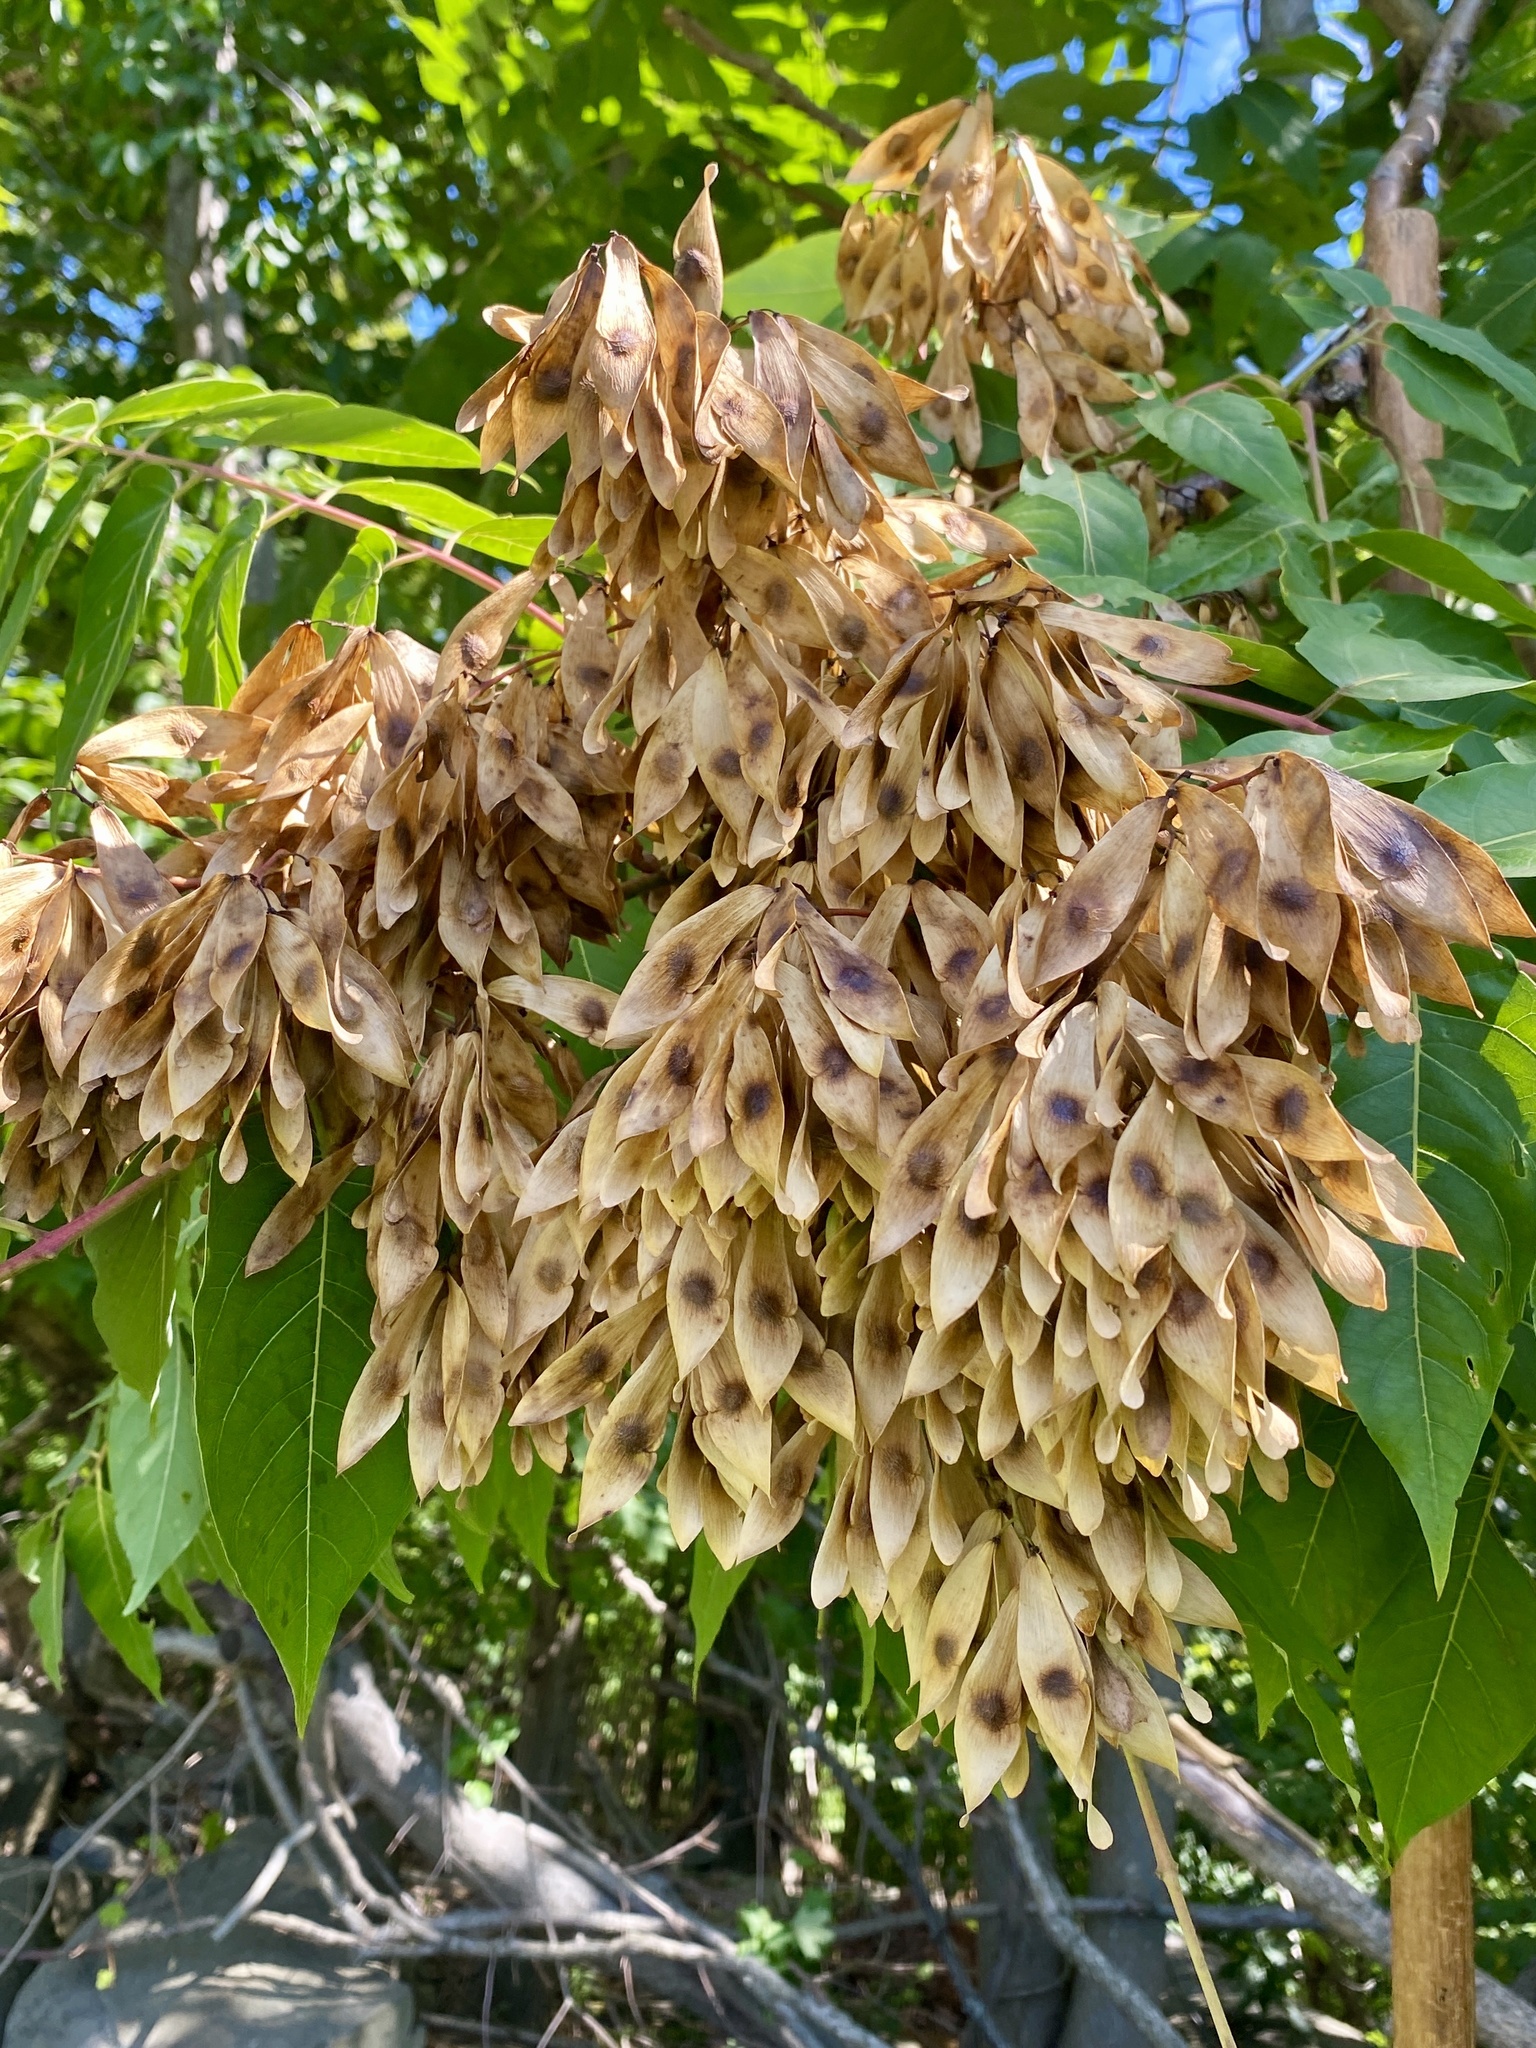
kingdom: Plantae
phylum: Tracheophyta
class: Magnoliopsida
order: Sapindales
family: Simaroubaceae
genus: Ailanthus
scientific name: Ailanthus altissima
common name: Tree-of-heaven
